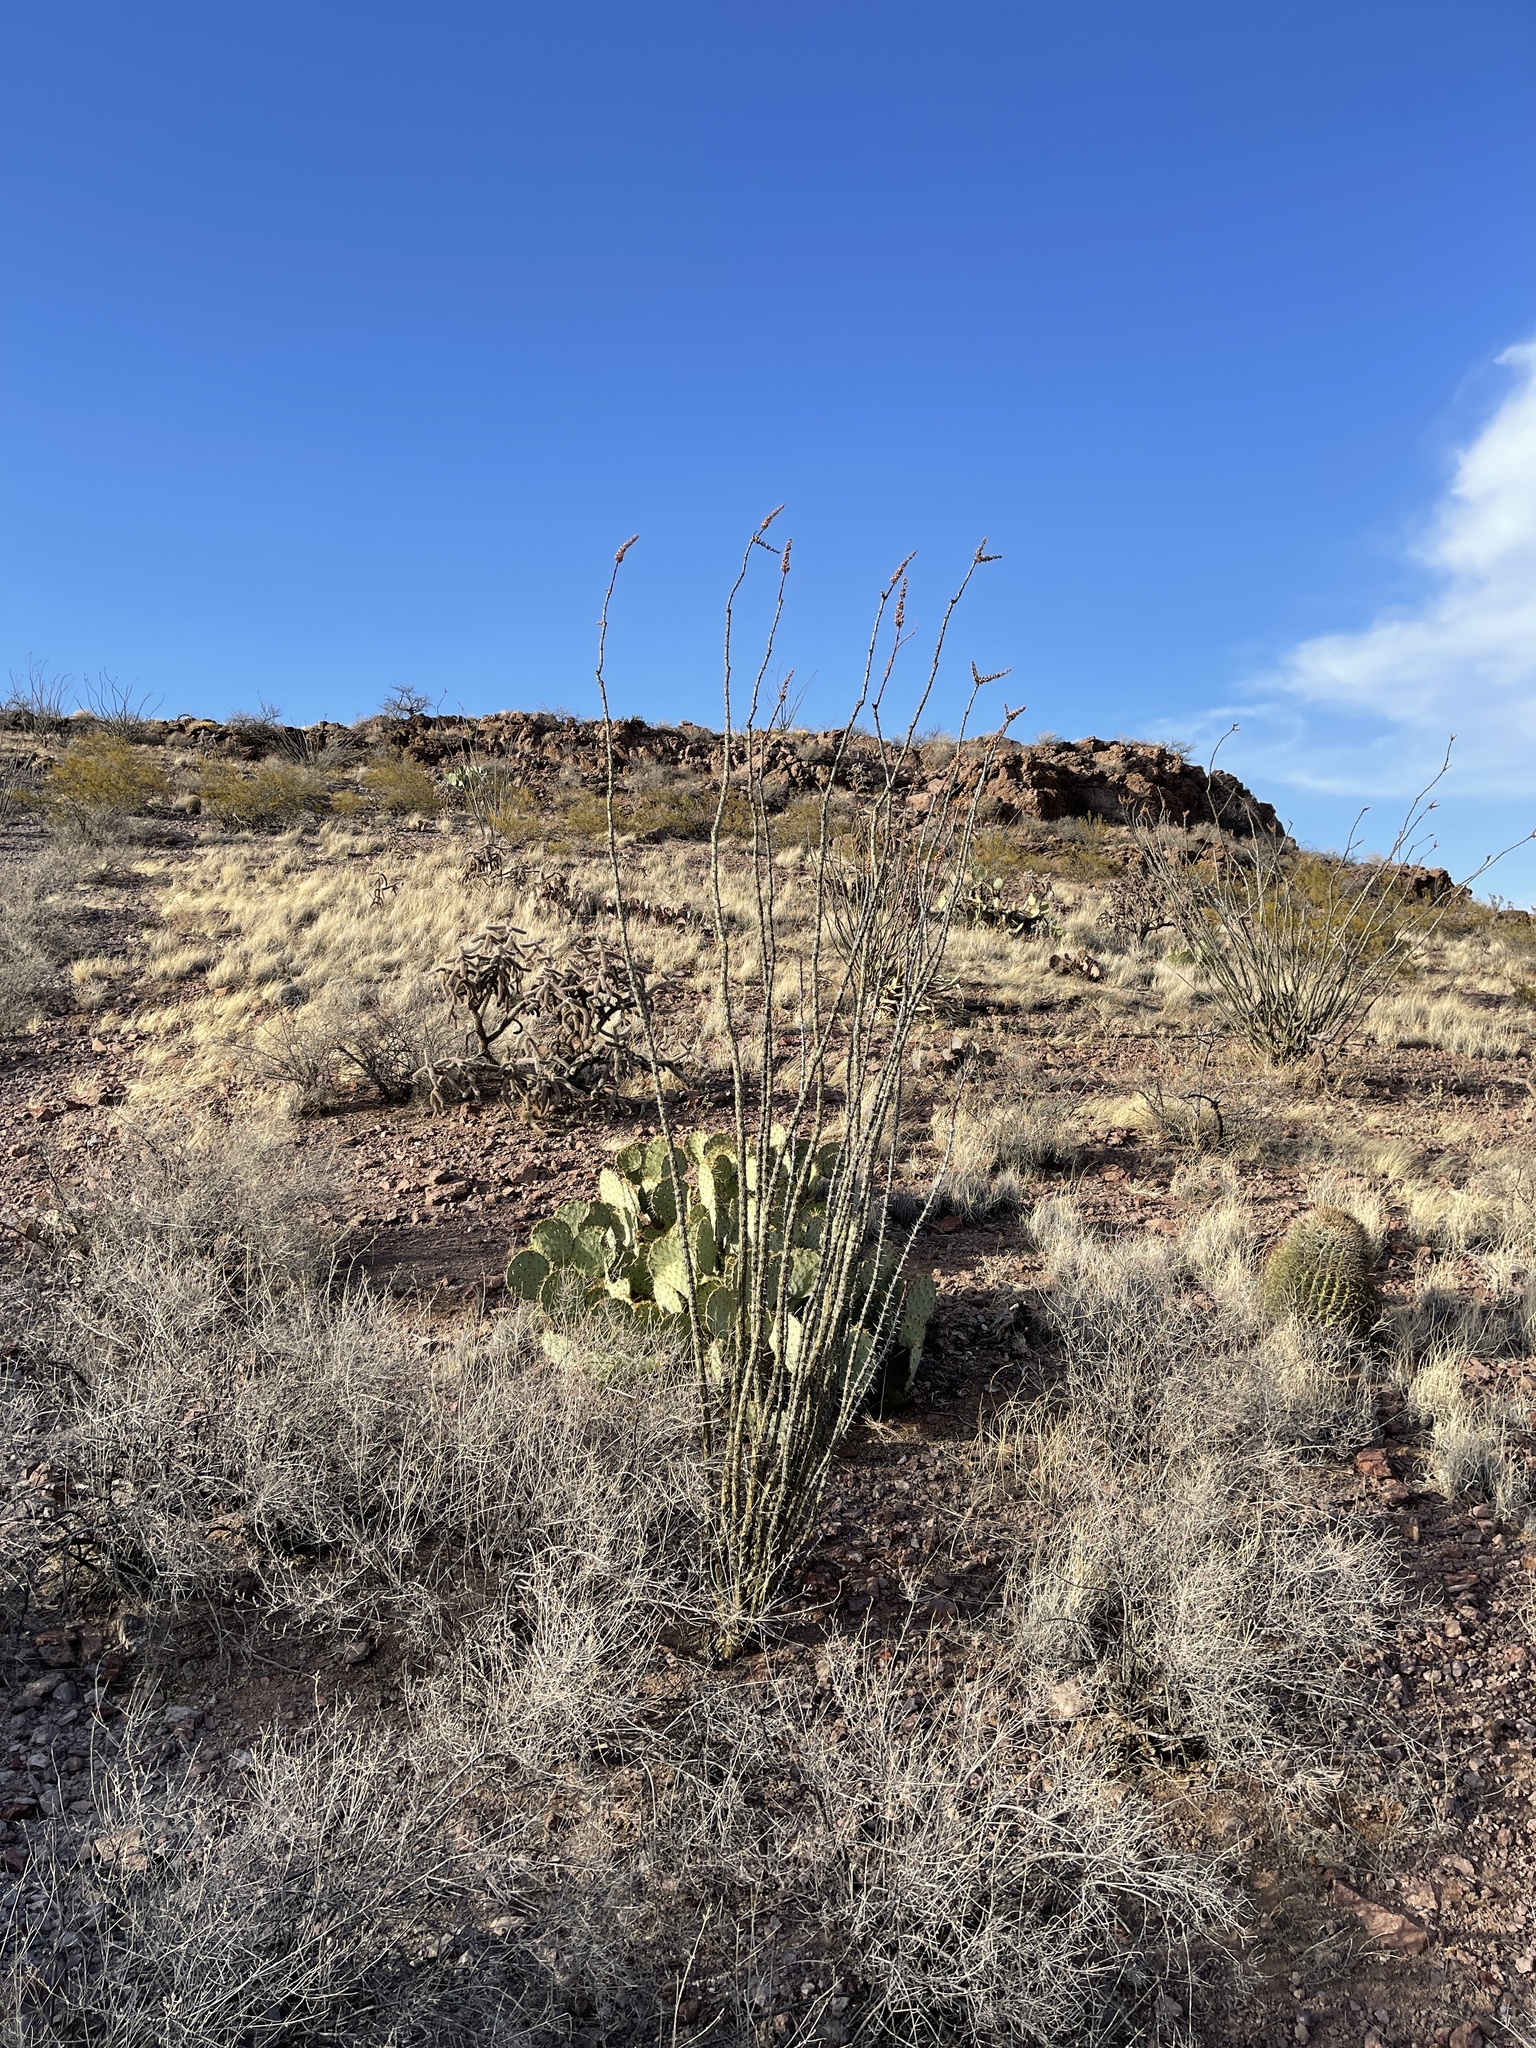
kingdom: Plantae
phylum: Tracheophyta
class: Magnoliopsida
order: Ericales
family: Fouquieriaceae
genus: Fouquieria
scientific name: Fouquieria splendens
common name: Vine-cactus
